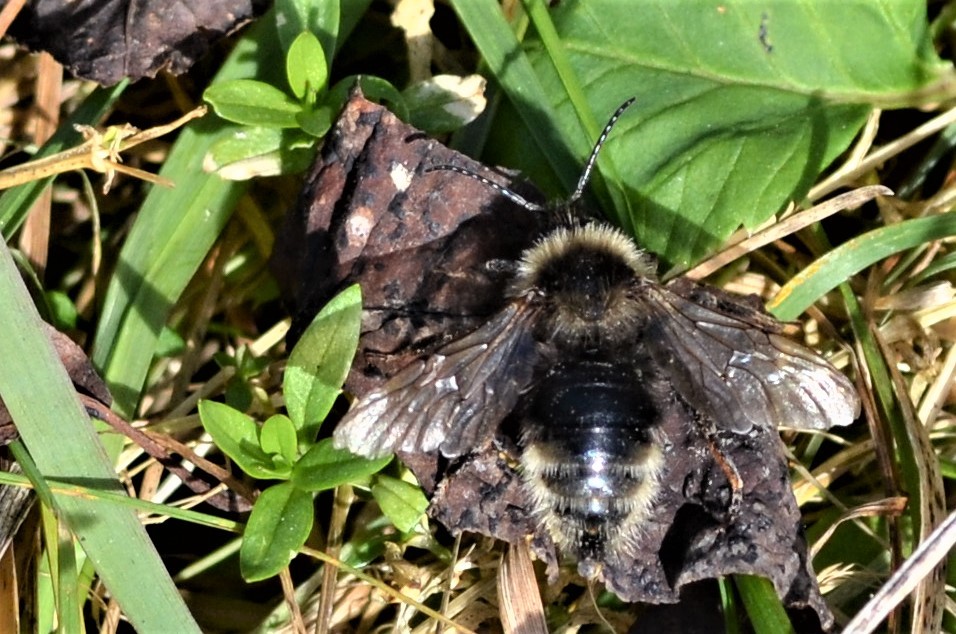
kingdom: Animalia
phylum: Arthropoda
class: Insecta
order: Hymenoptera
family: Apidae
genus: Bombus
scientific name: Bombus campestris
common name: Field cuckoo-bee
